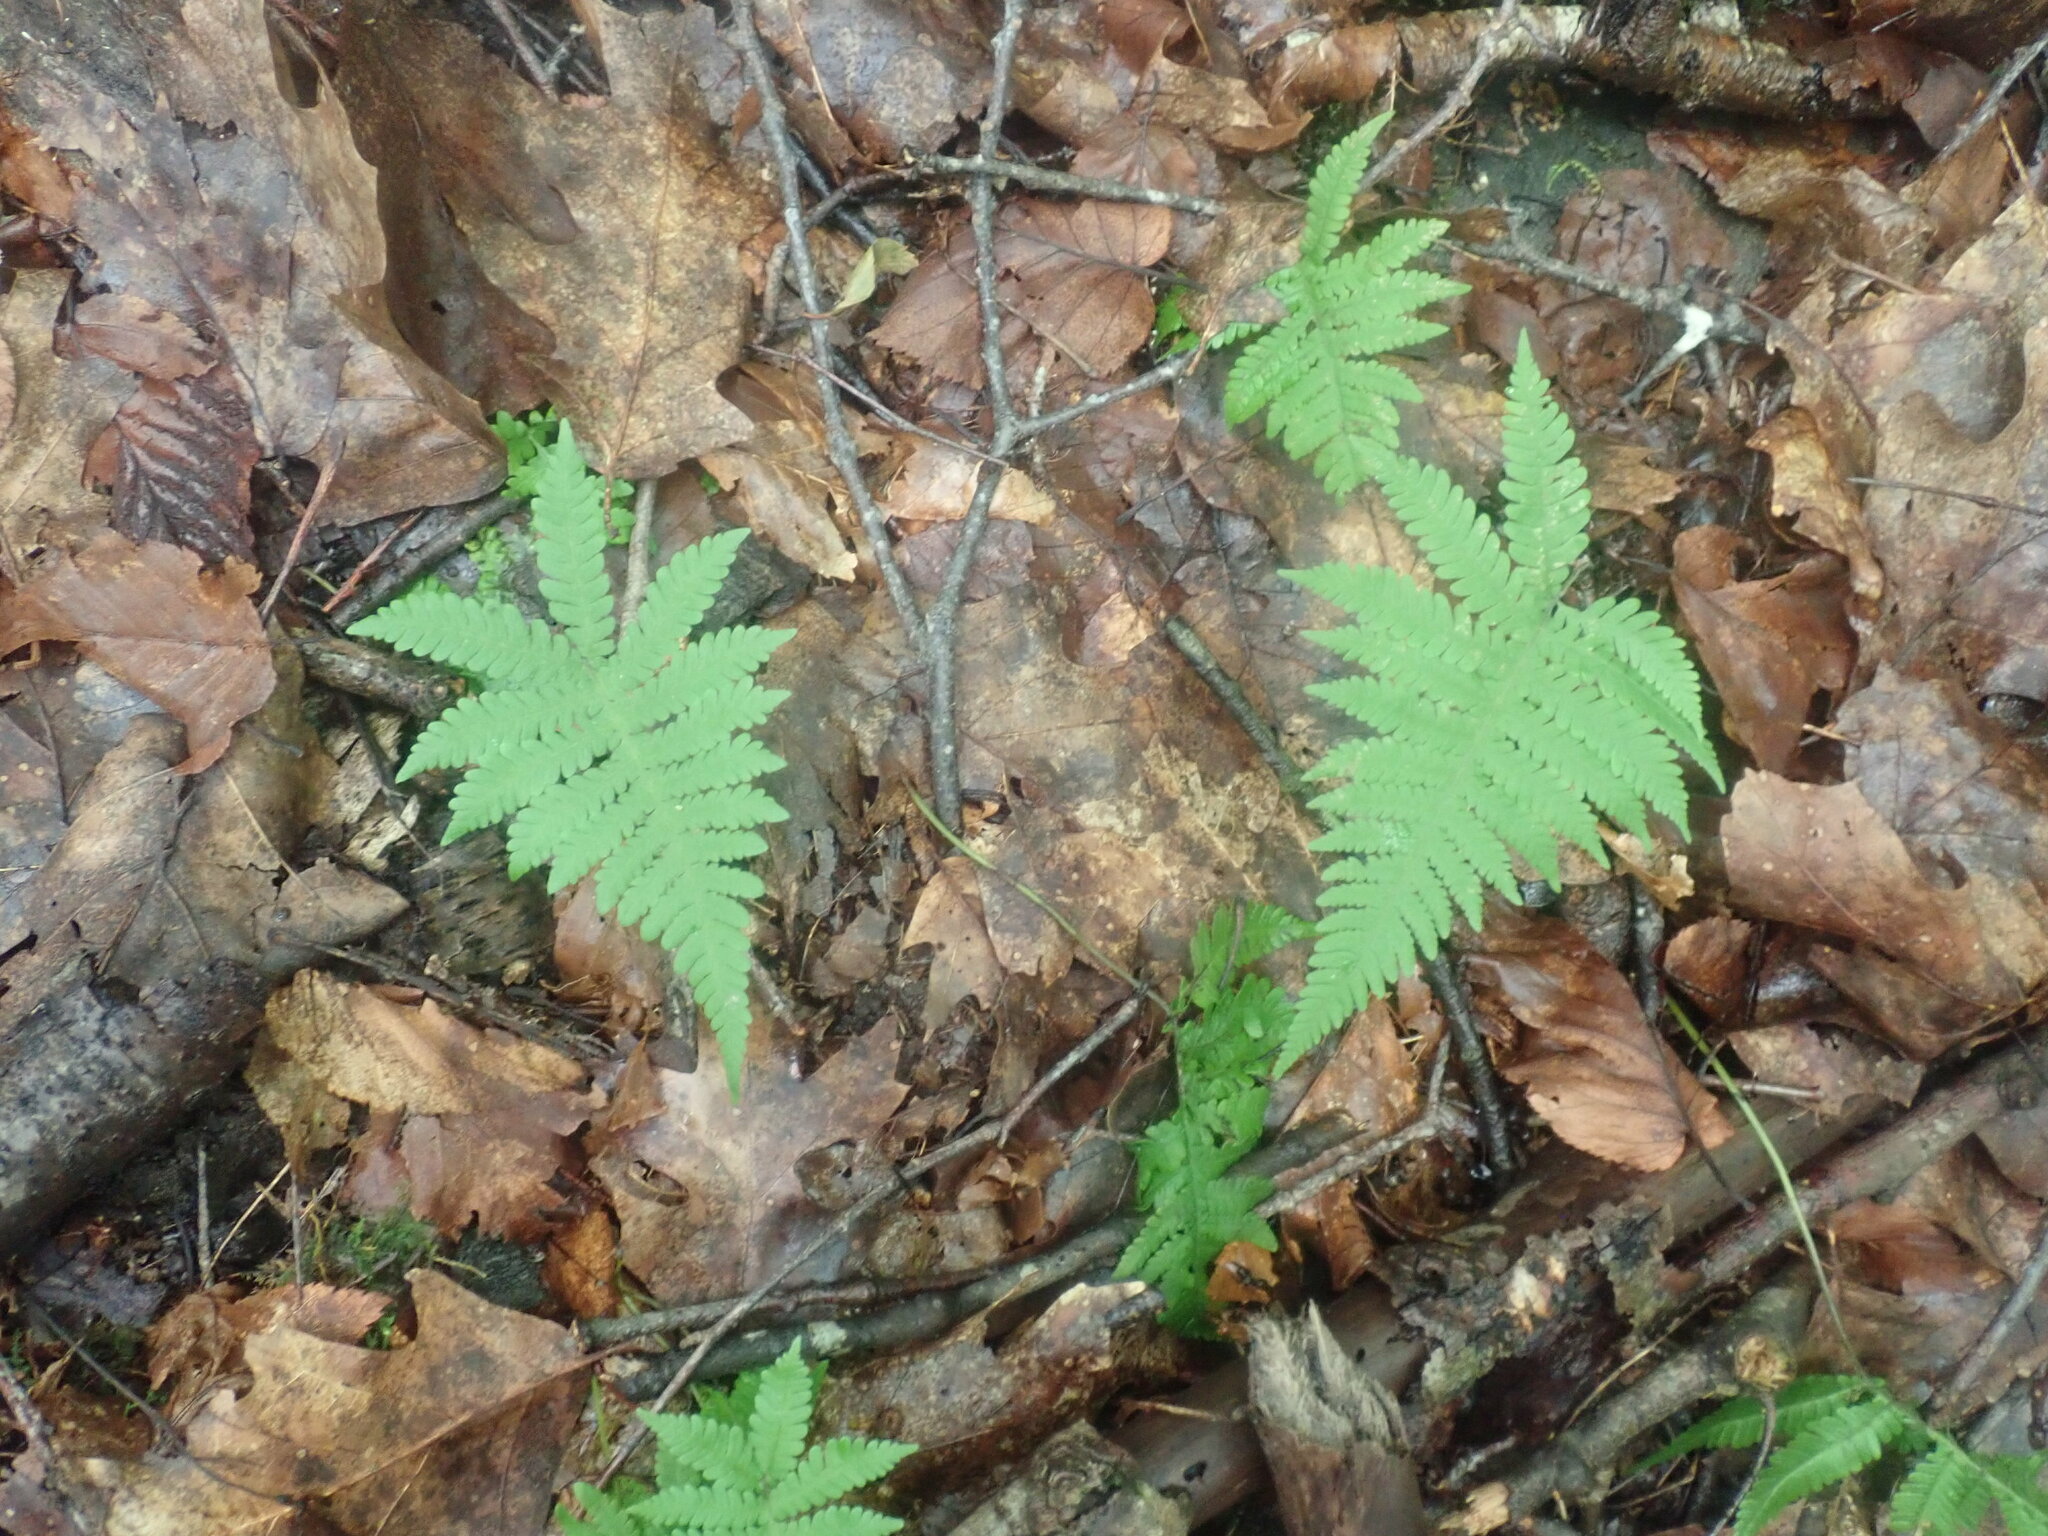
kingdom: Plantae
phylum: Tracheophyta
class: Polypodiopsida
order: Polypodiales
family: Thelypteridaceae
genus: Phegopteris
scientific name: Phegopteris connectilis
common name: Beech fern
